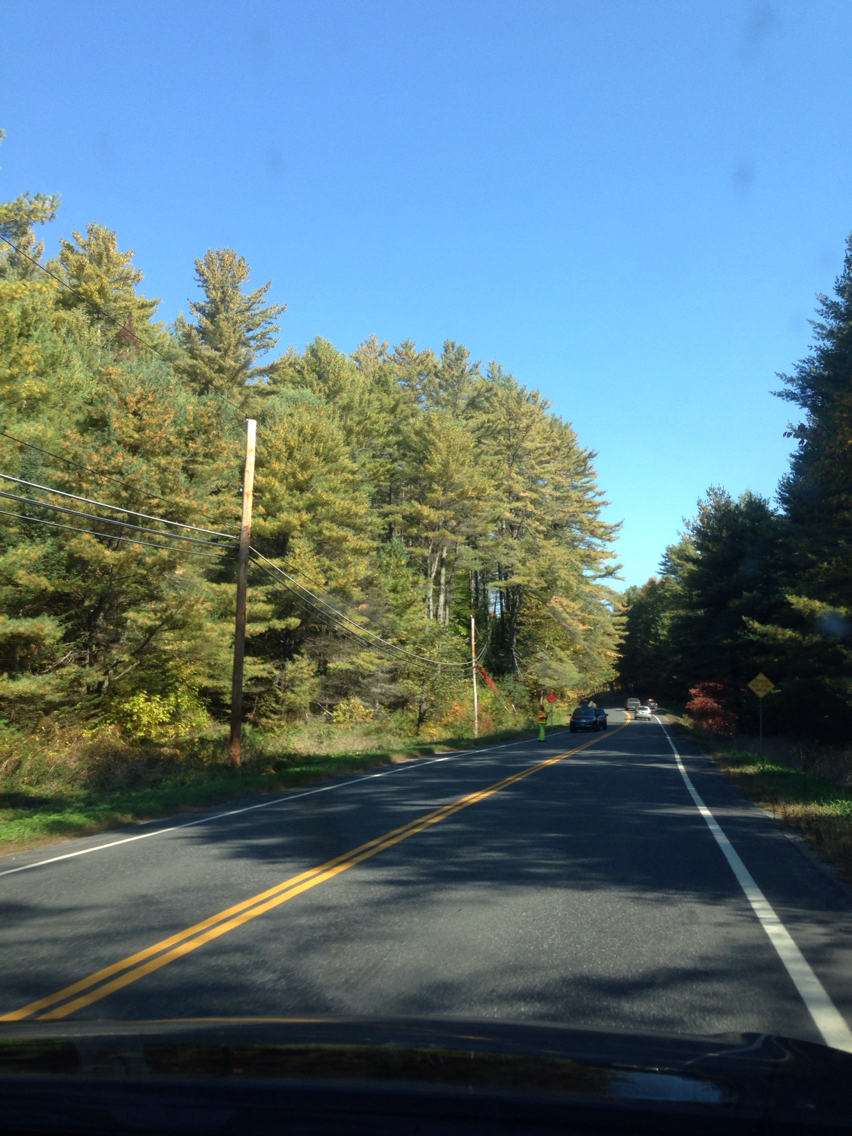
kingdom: Plantae
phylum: Tracheophyta
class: Pinopsida
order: Pinales
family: Pinaceae
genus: Pinus
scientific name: Pinus strobus
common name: Weymouth pine
